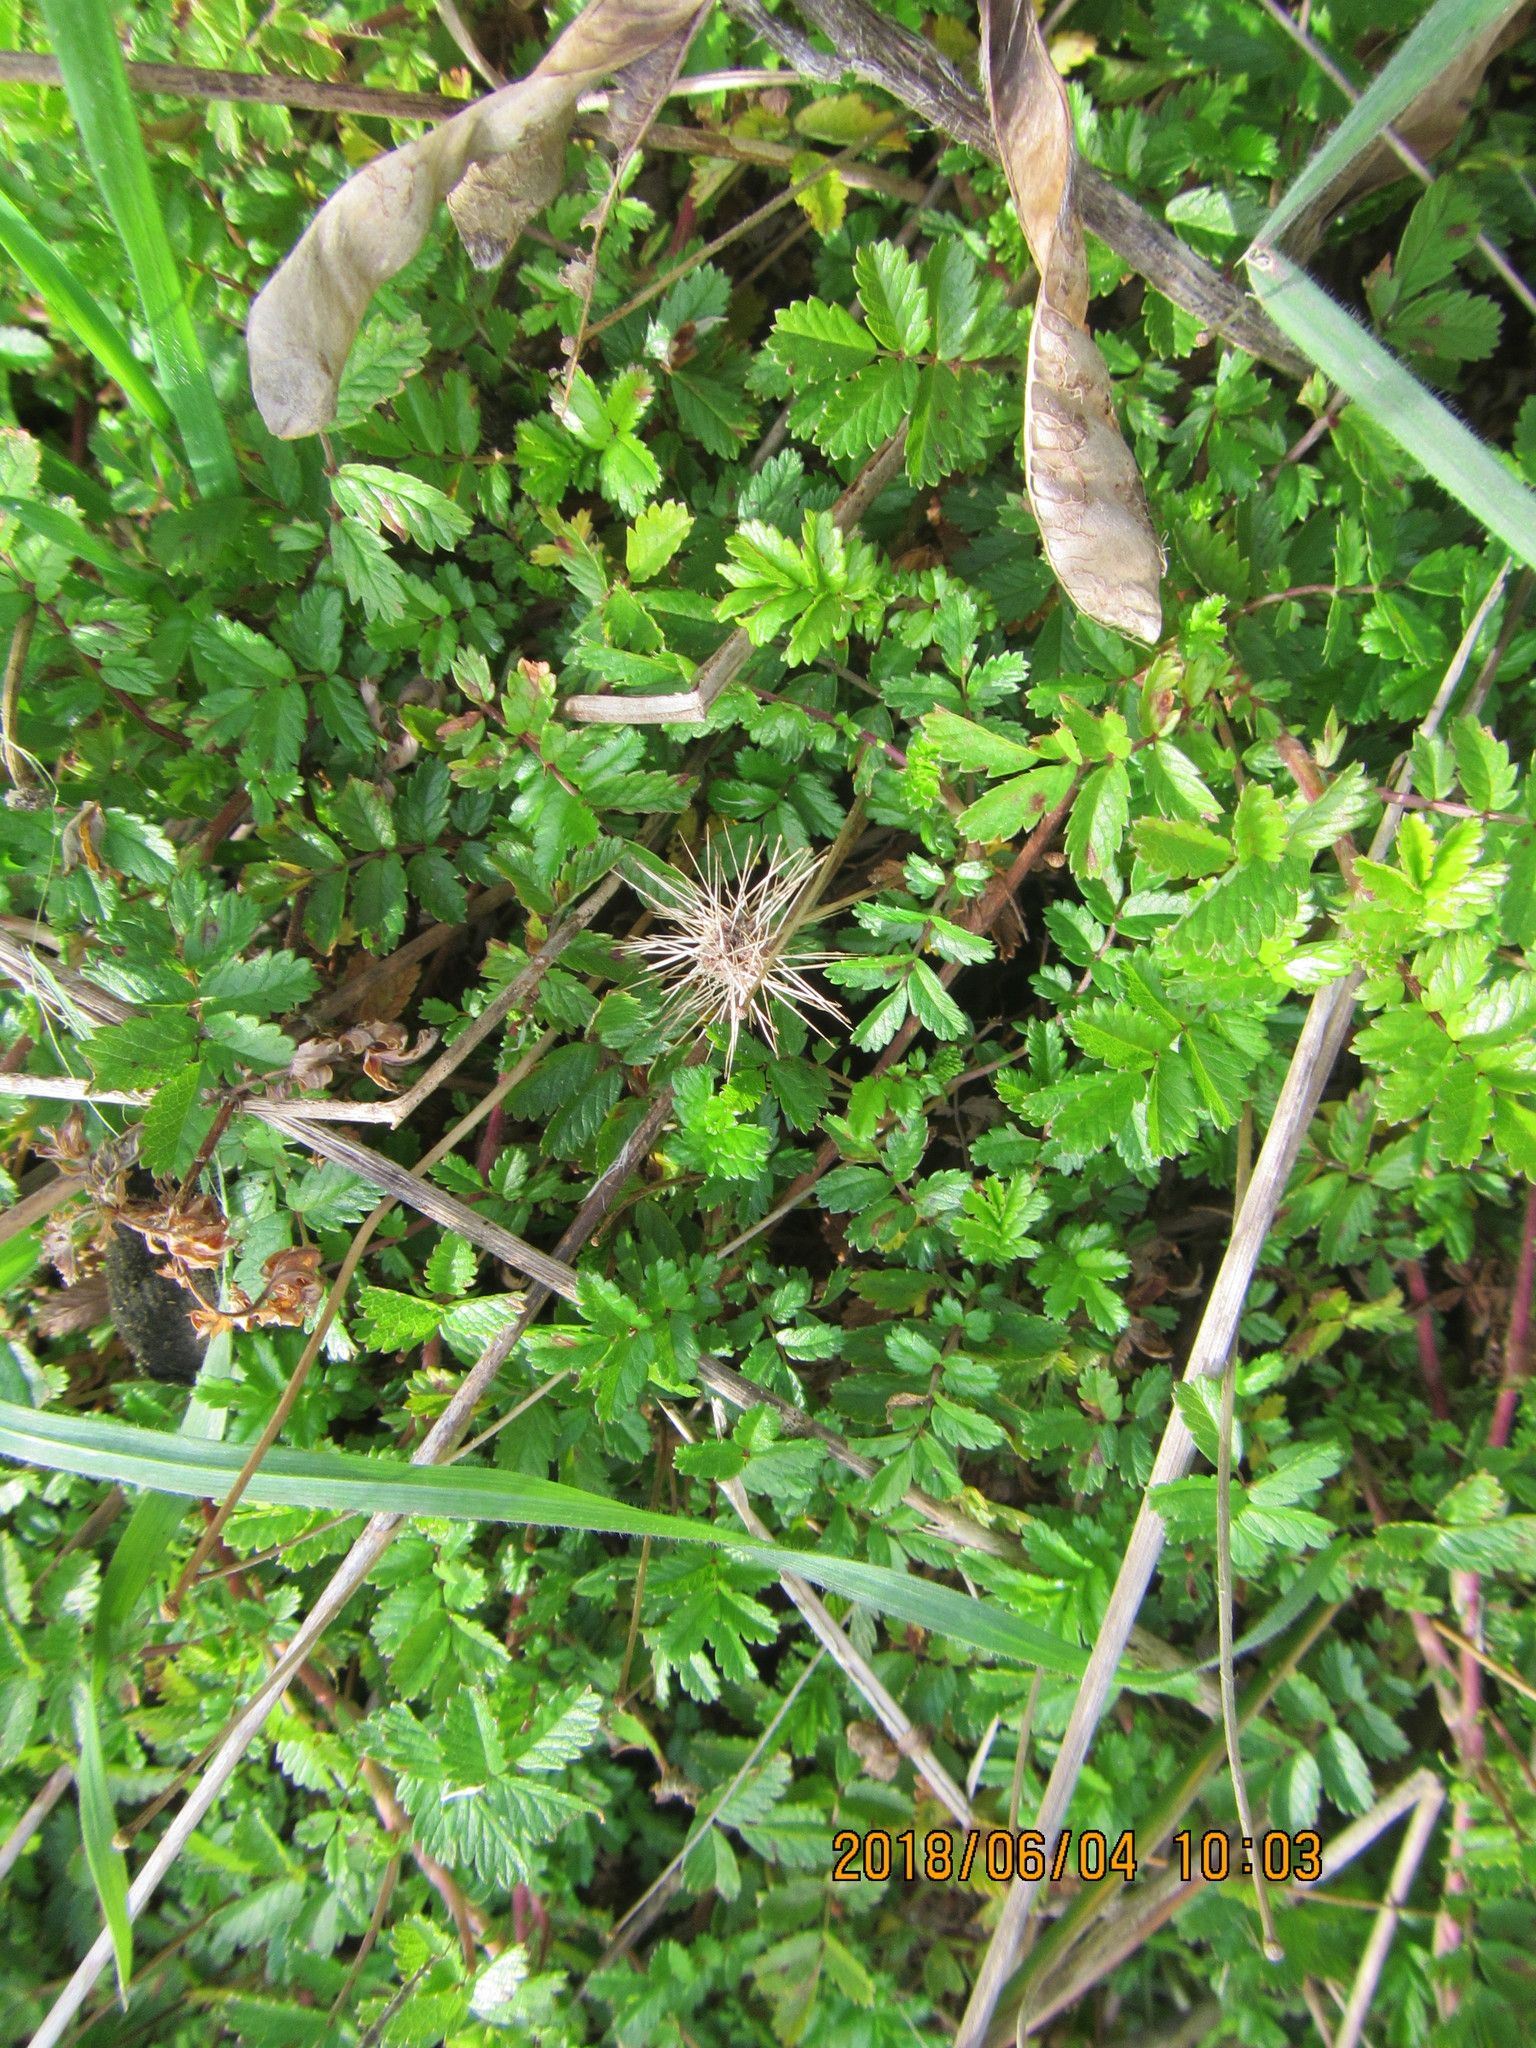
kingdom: Plantae
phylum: Tracheophyta
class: Magnoliopsida
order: Rosales
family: Rosaceae
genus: Acaena
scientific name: Acaena novae-zelandiae
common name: Pirri-pirri-bur
